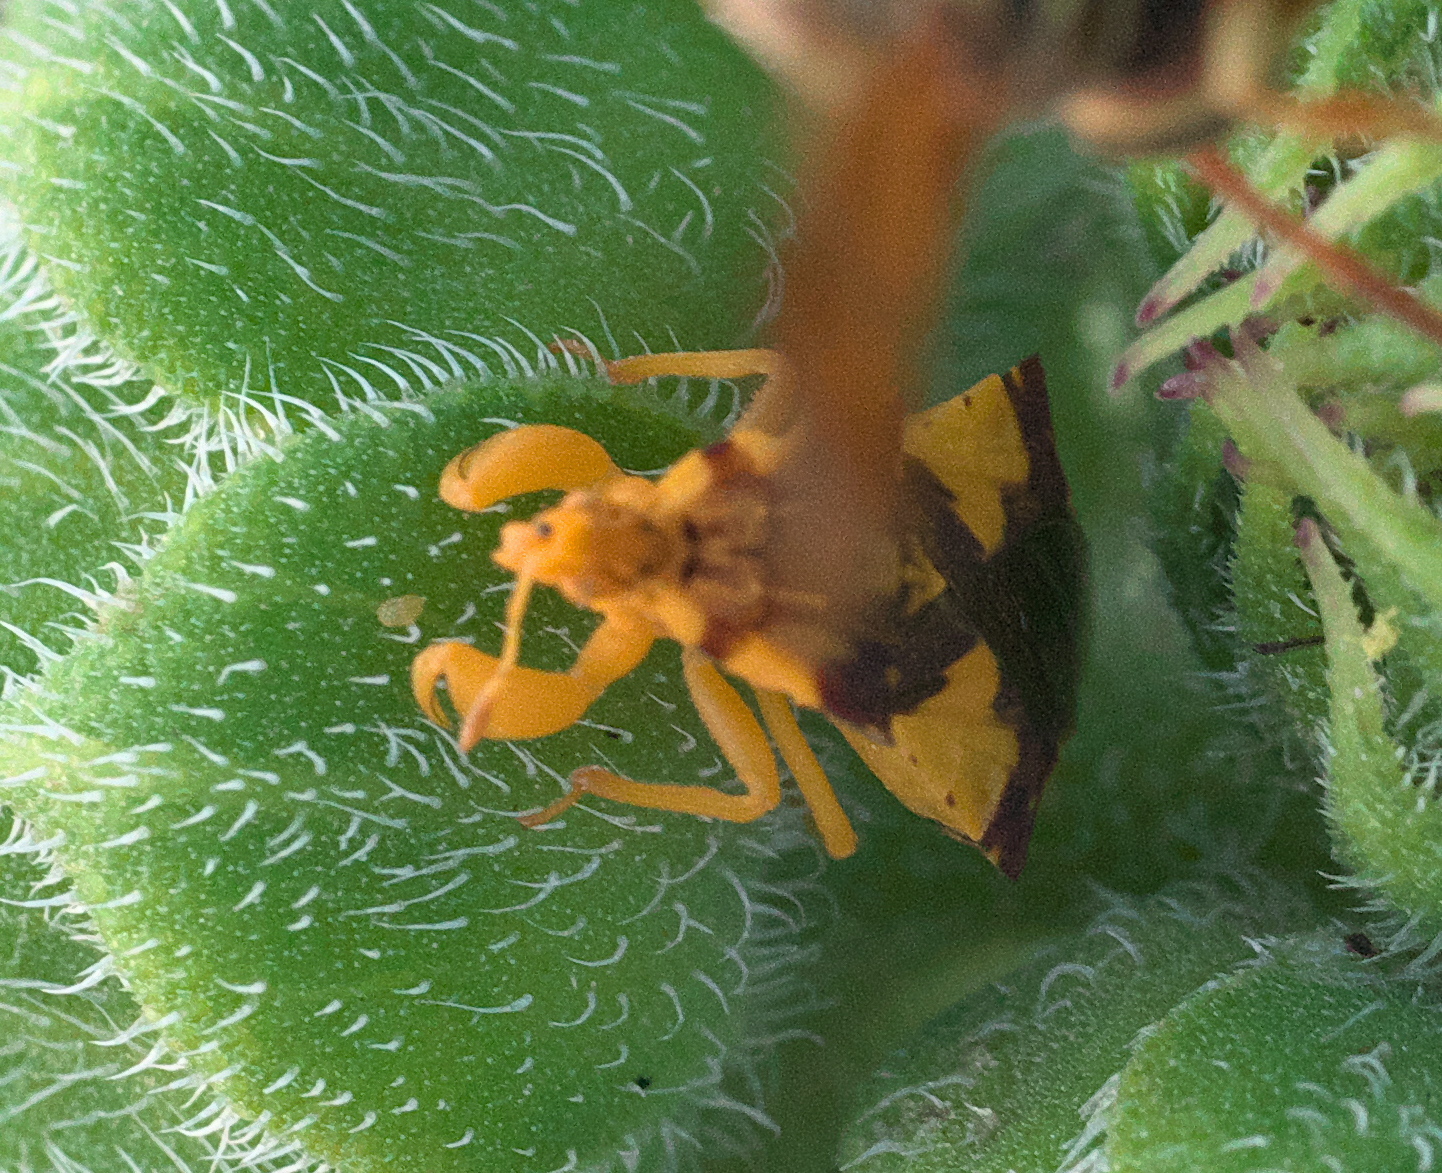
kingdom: Animalia
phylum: Arthropoda
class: Insecta
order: Hemiptera
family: Reduviidae
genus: Phymata
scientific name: Phymata americana
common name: Jagged ambush bug
